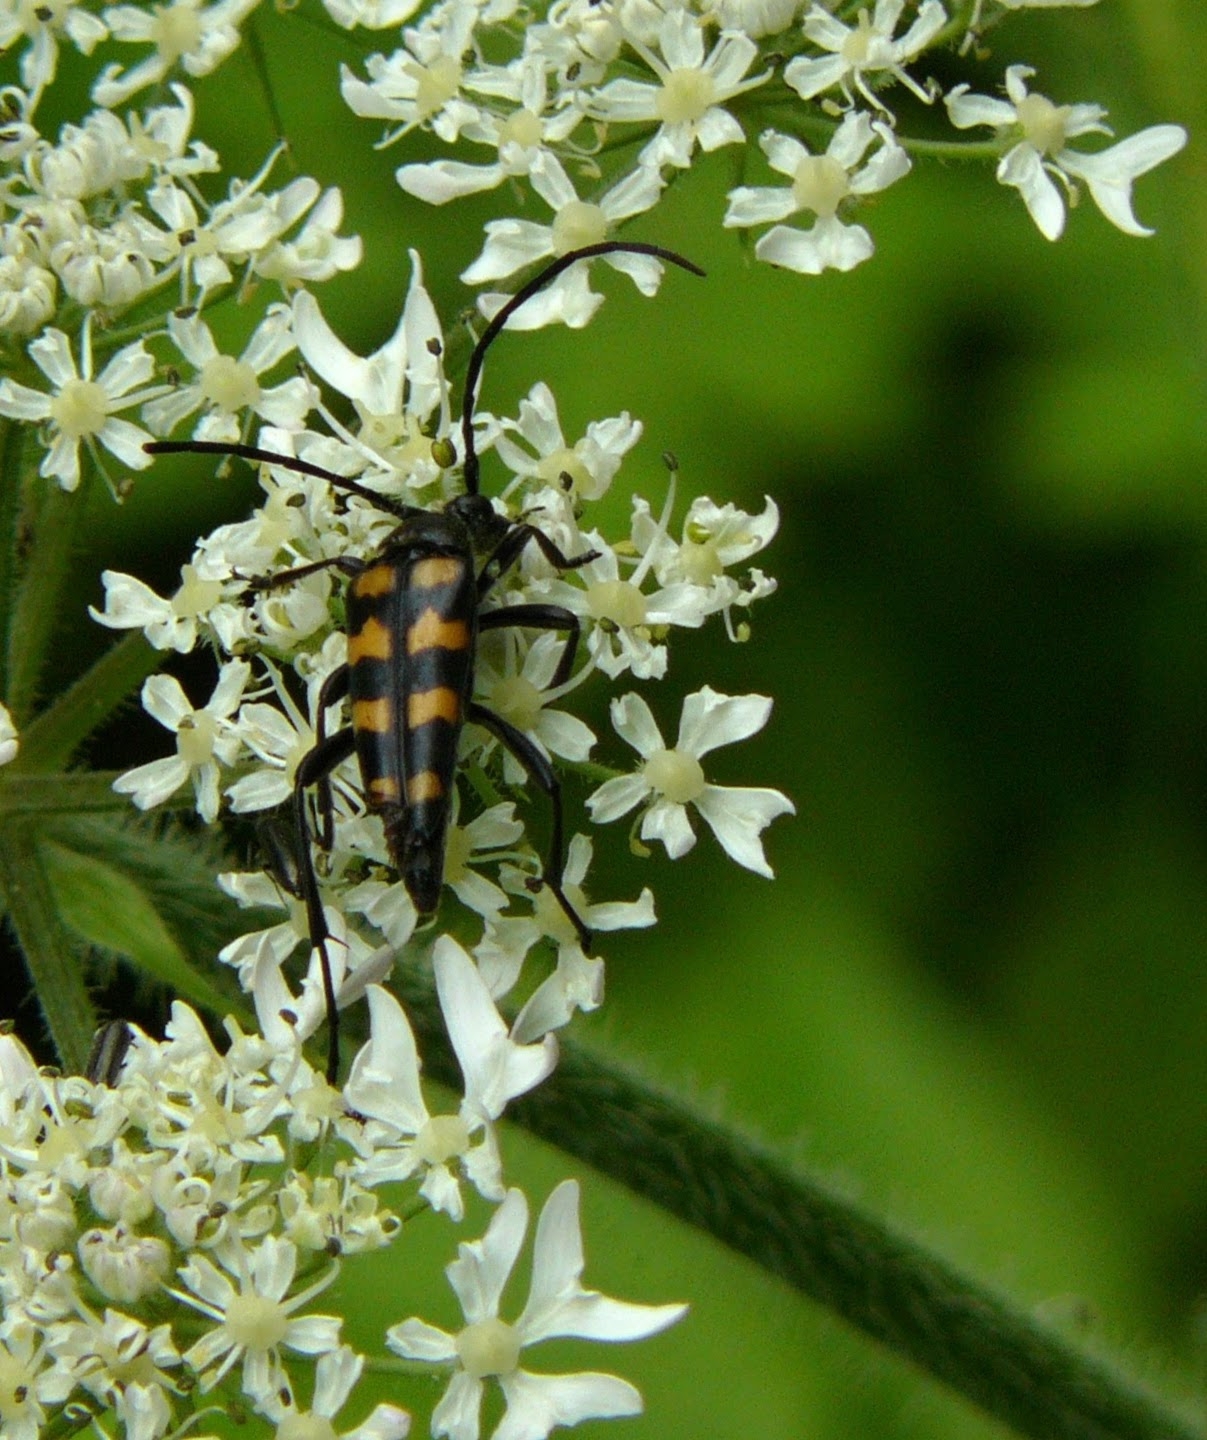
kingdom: Animalia
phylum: Arthropoda
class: Insecta
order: Coleoptera
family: Cerambycidae
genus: Leptura
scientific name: Leptura quadrifasciata
